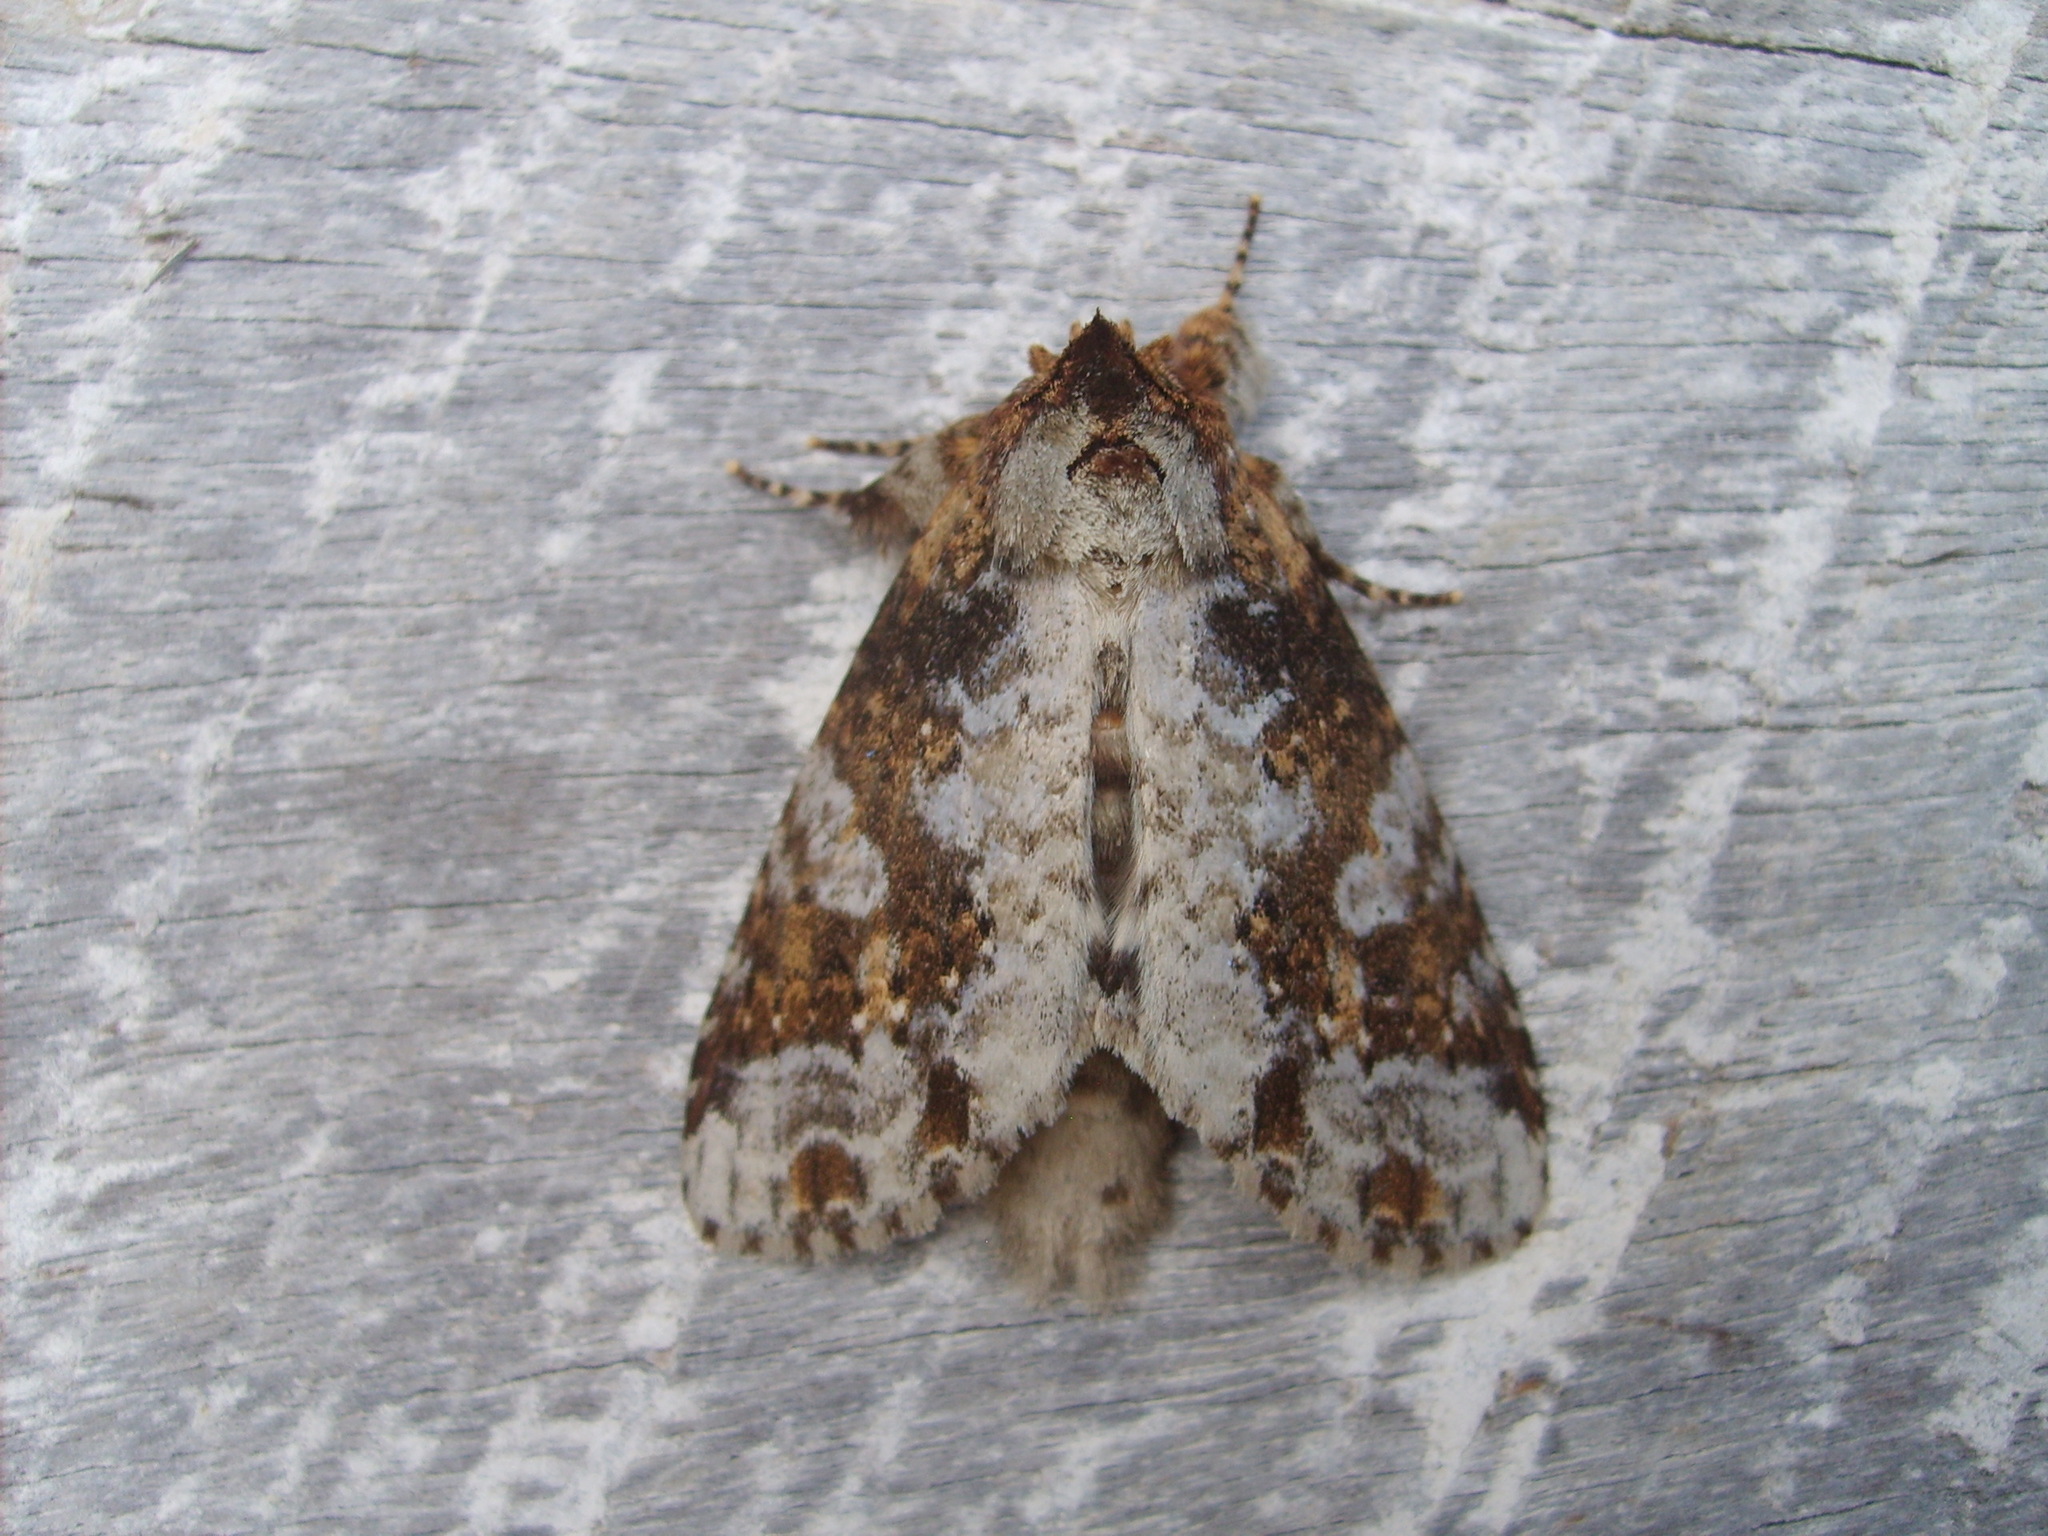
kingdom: Animalia
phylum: Arthropoda
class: Insecta
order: Lepidoptera
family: Notodontidae
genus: Disphragis
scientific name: Disphragis tharis
